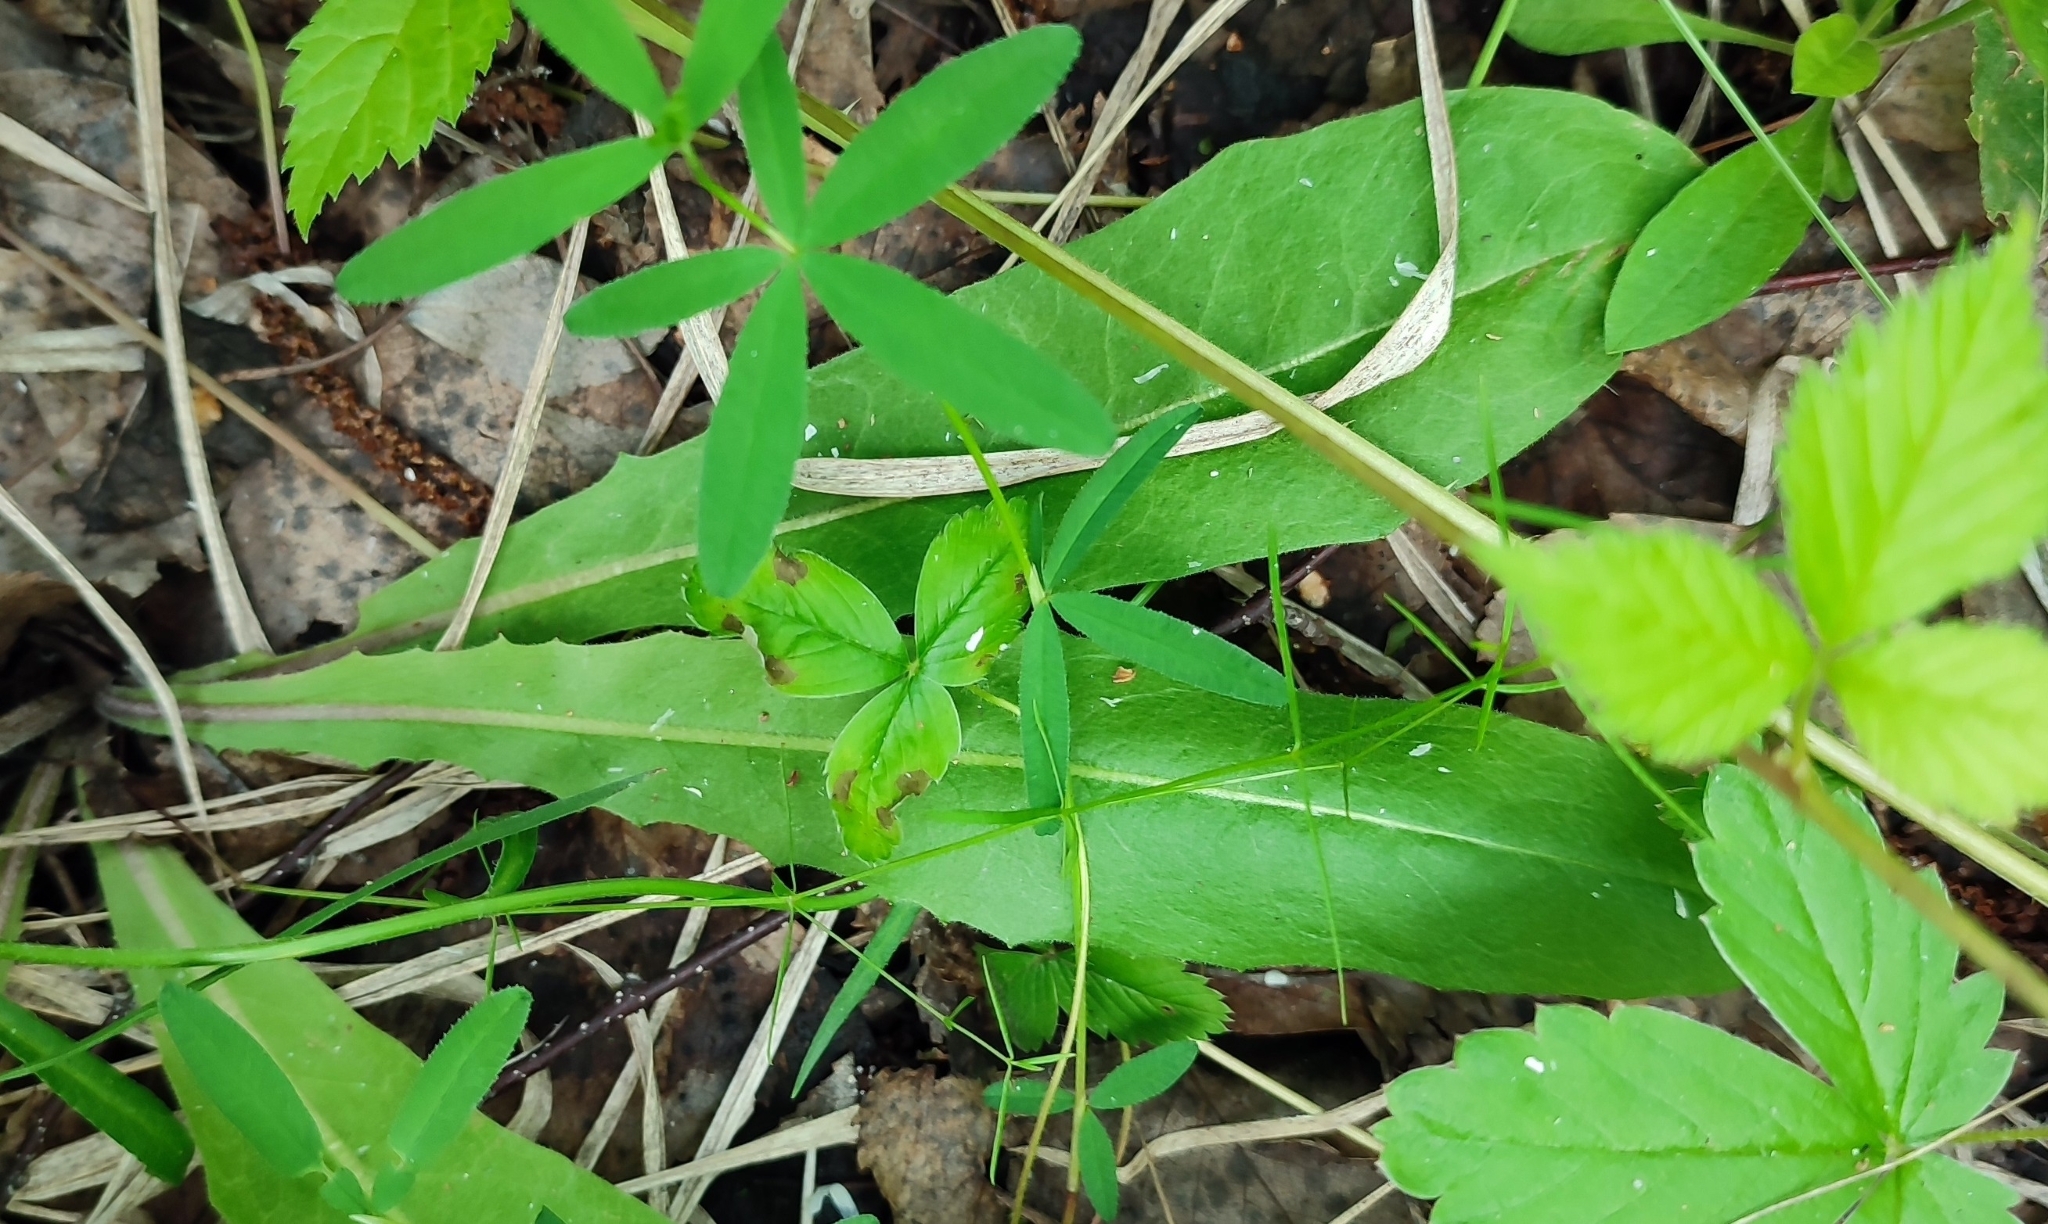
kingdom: Plantae
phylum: Tracheophyta
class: Magnoliopsida
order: Asterales
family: Asteraceae
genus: Crepis
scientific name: Crepis praemorsa
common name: Leafless hawk's-beard
